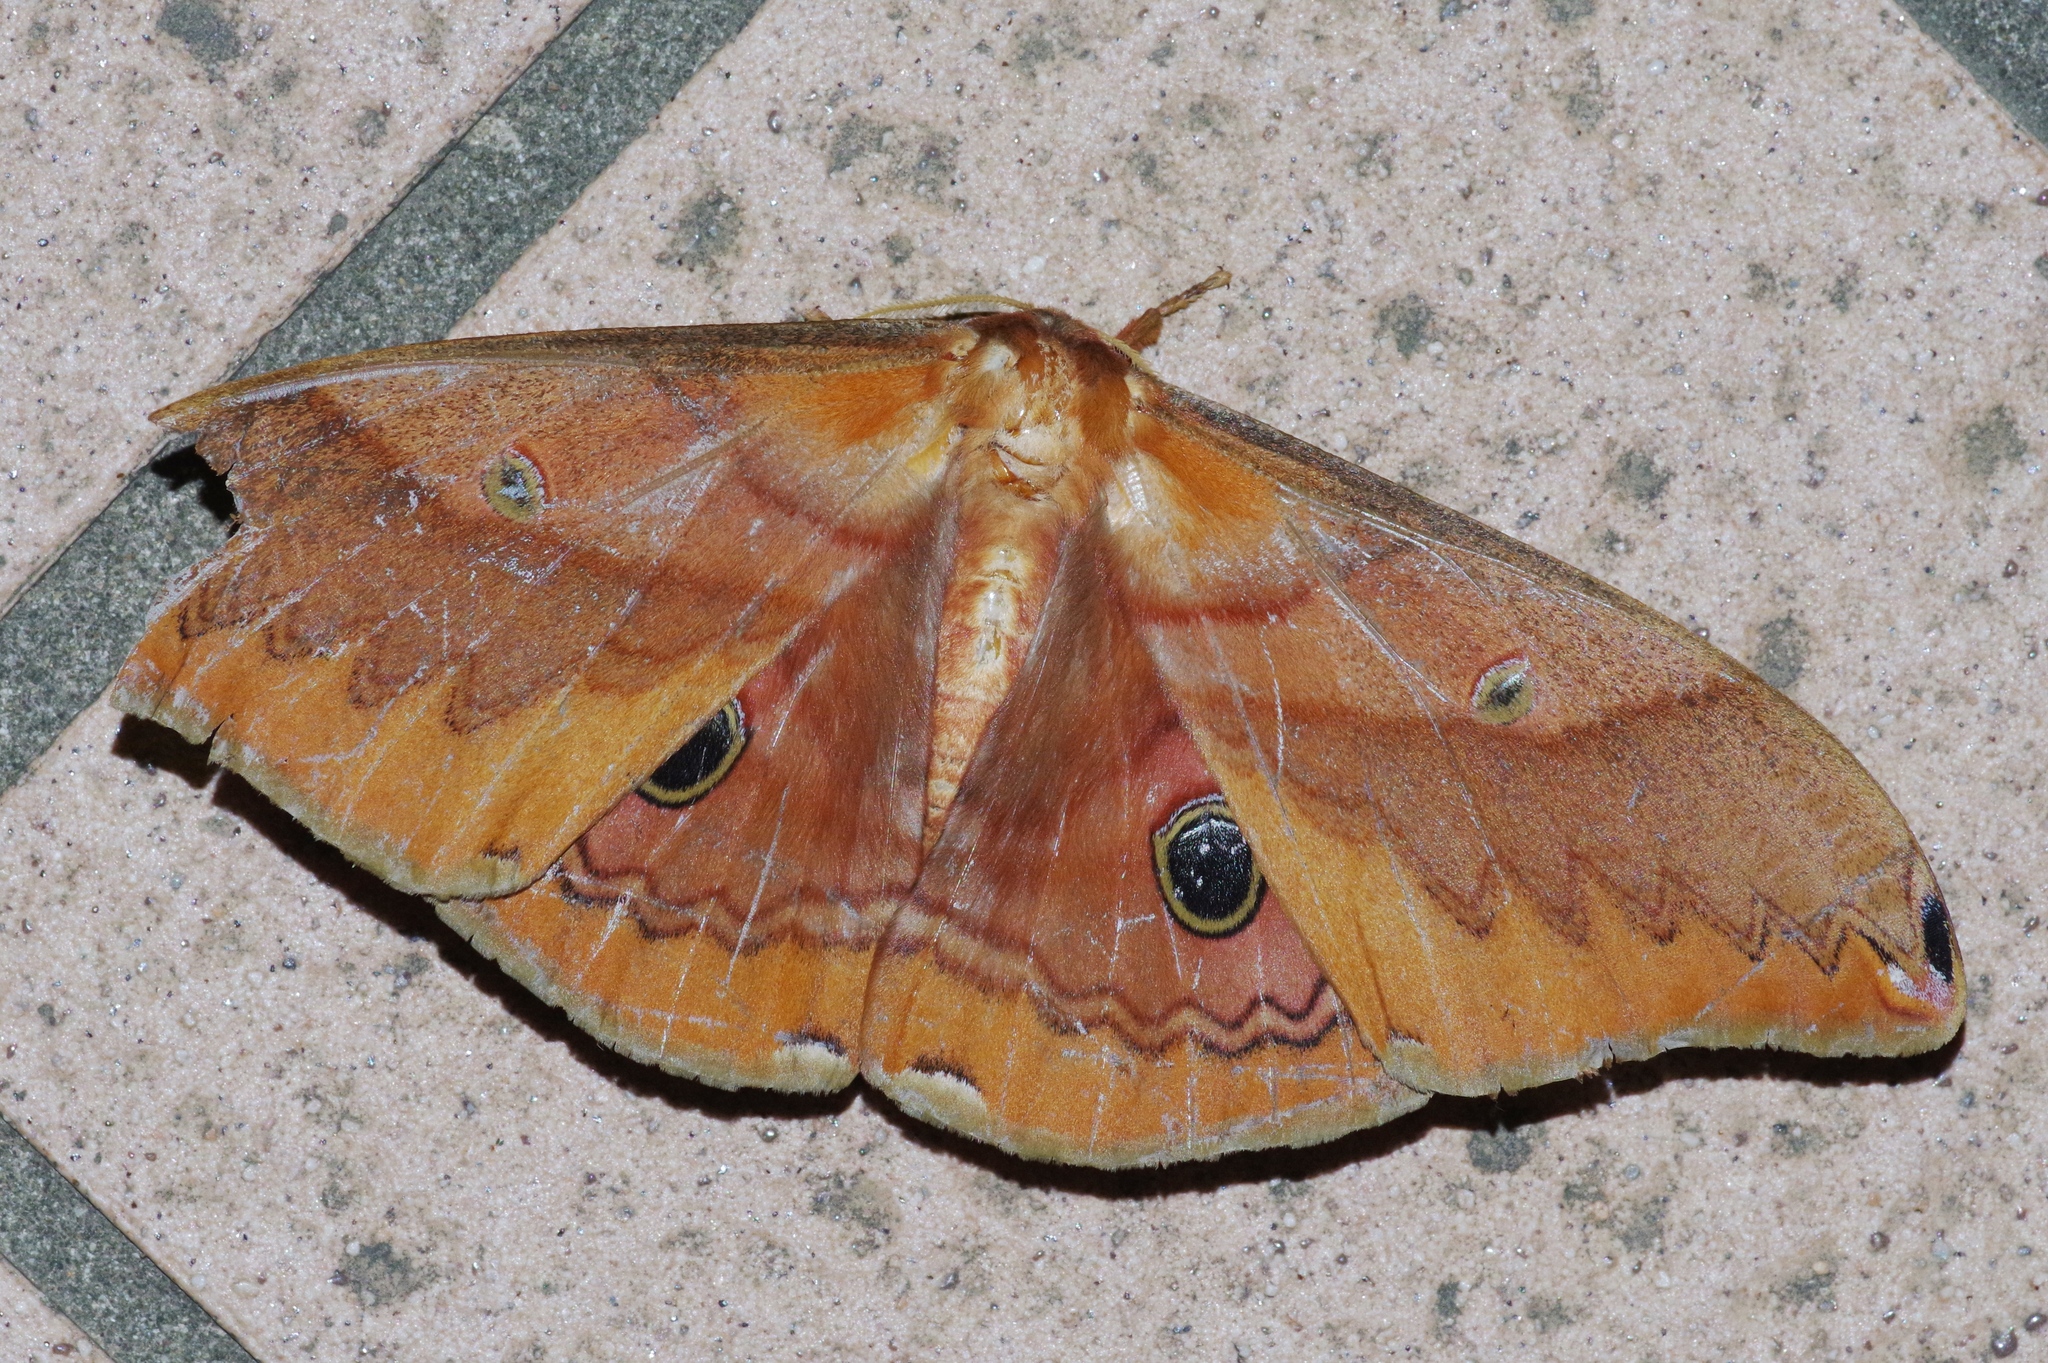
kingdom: Animalia
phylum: Arthropoda
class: Insecta
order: Lepidoptera
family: Saturniidae
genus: Saturnia
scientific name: Saturnia japonica
